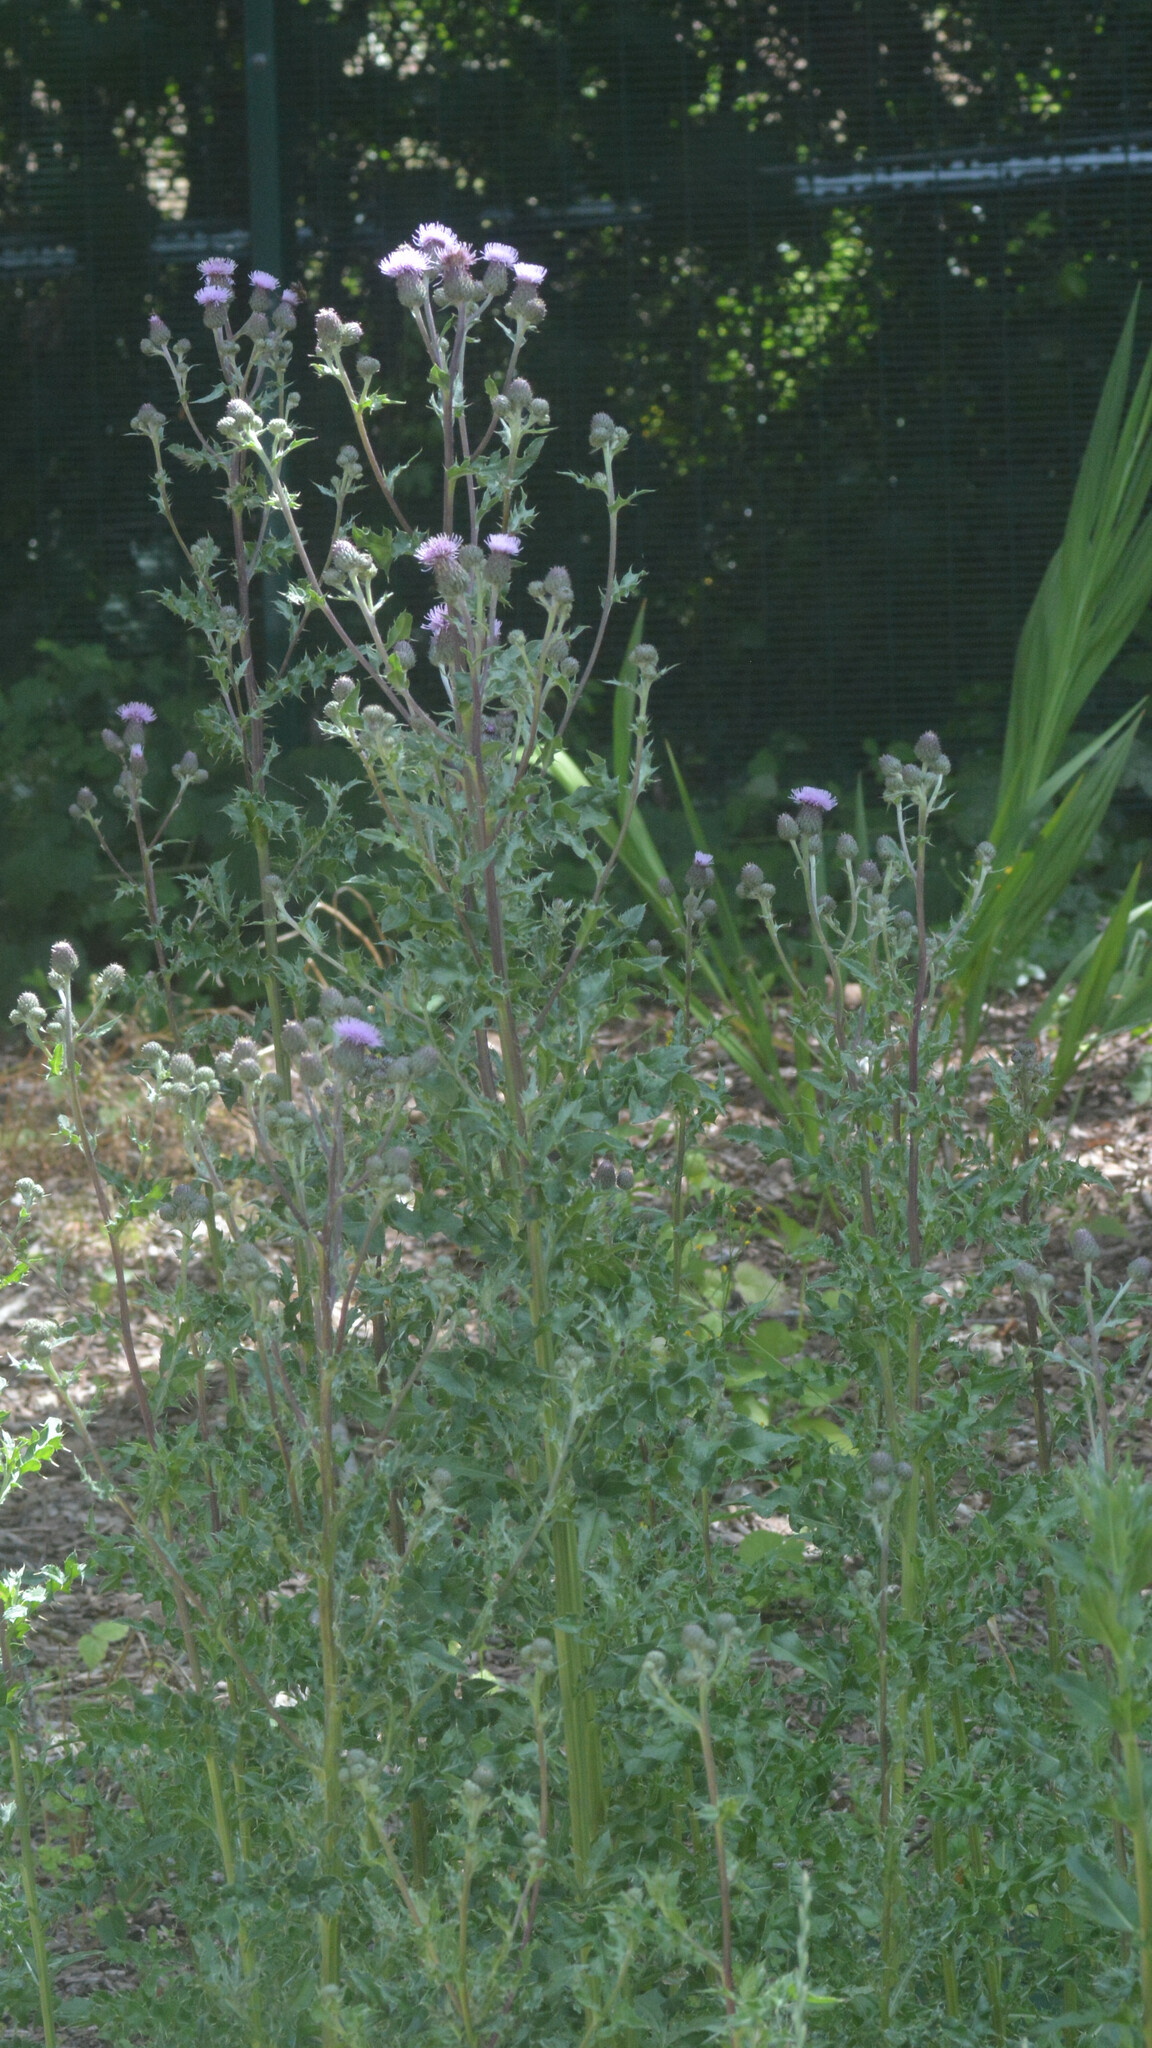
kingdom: Plantae
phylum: Tracheophyta
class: Magnoliopsida
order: Asterales
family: Asteraceae
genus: Cirsium
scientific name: Cirsium arvense
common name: Creeping thistle
